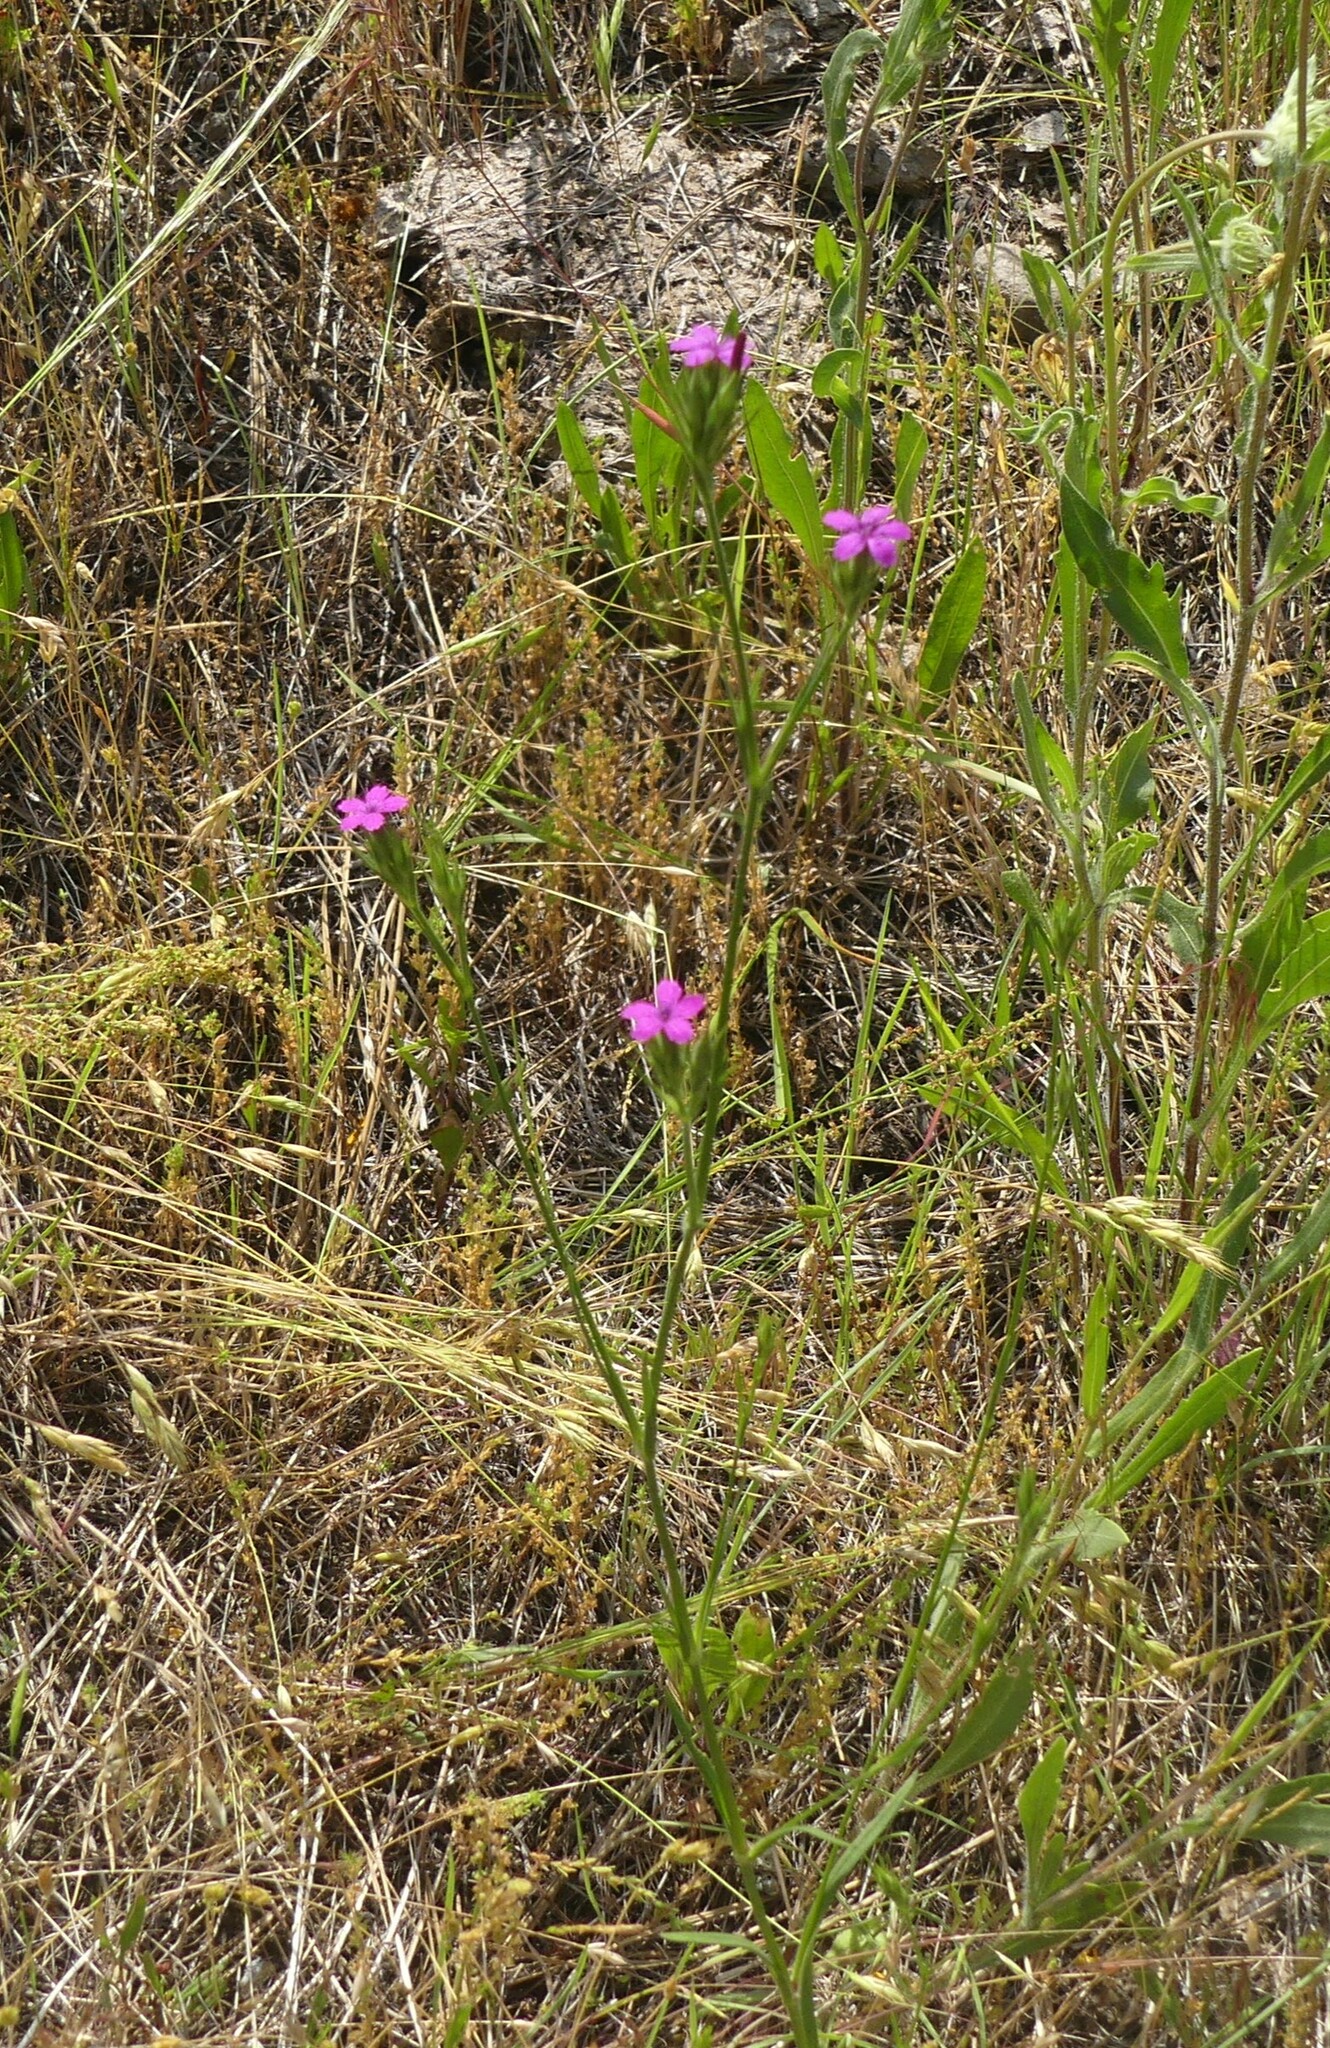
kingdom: Plantae
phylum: Tracheophyta
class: Magnoliopsida
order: Caryophyllales
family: Caryophyllaceae
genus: Dianthus
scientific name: Dianthus armeria
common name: Deptford pink
